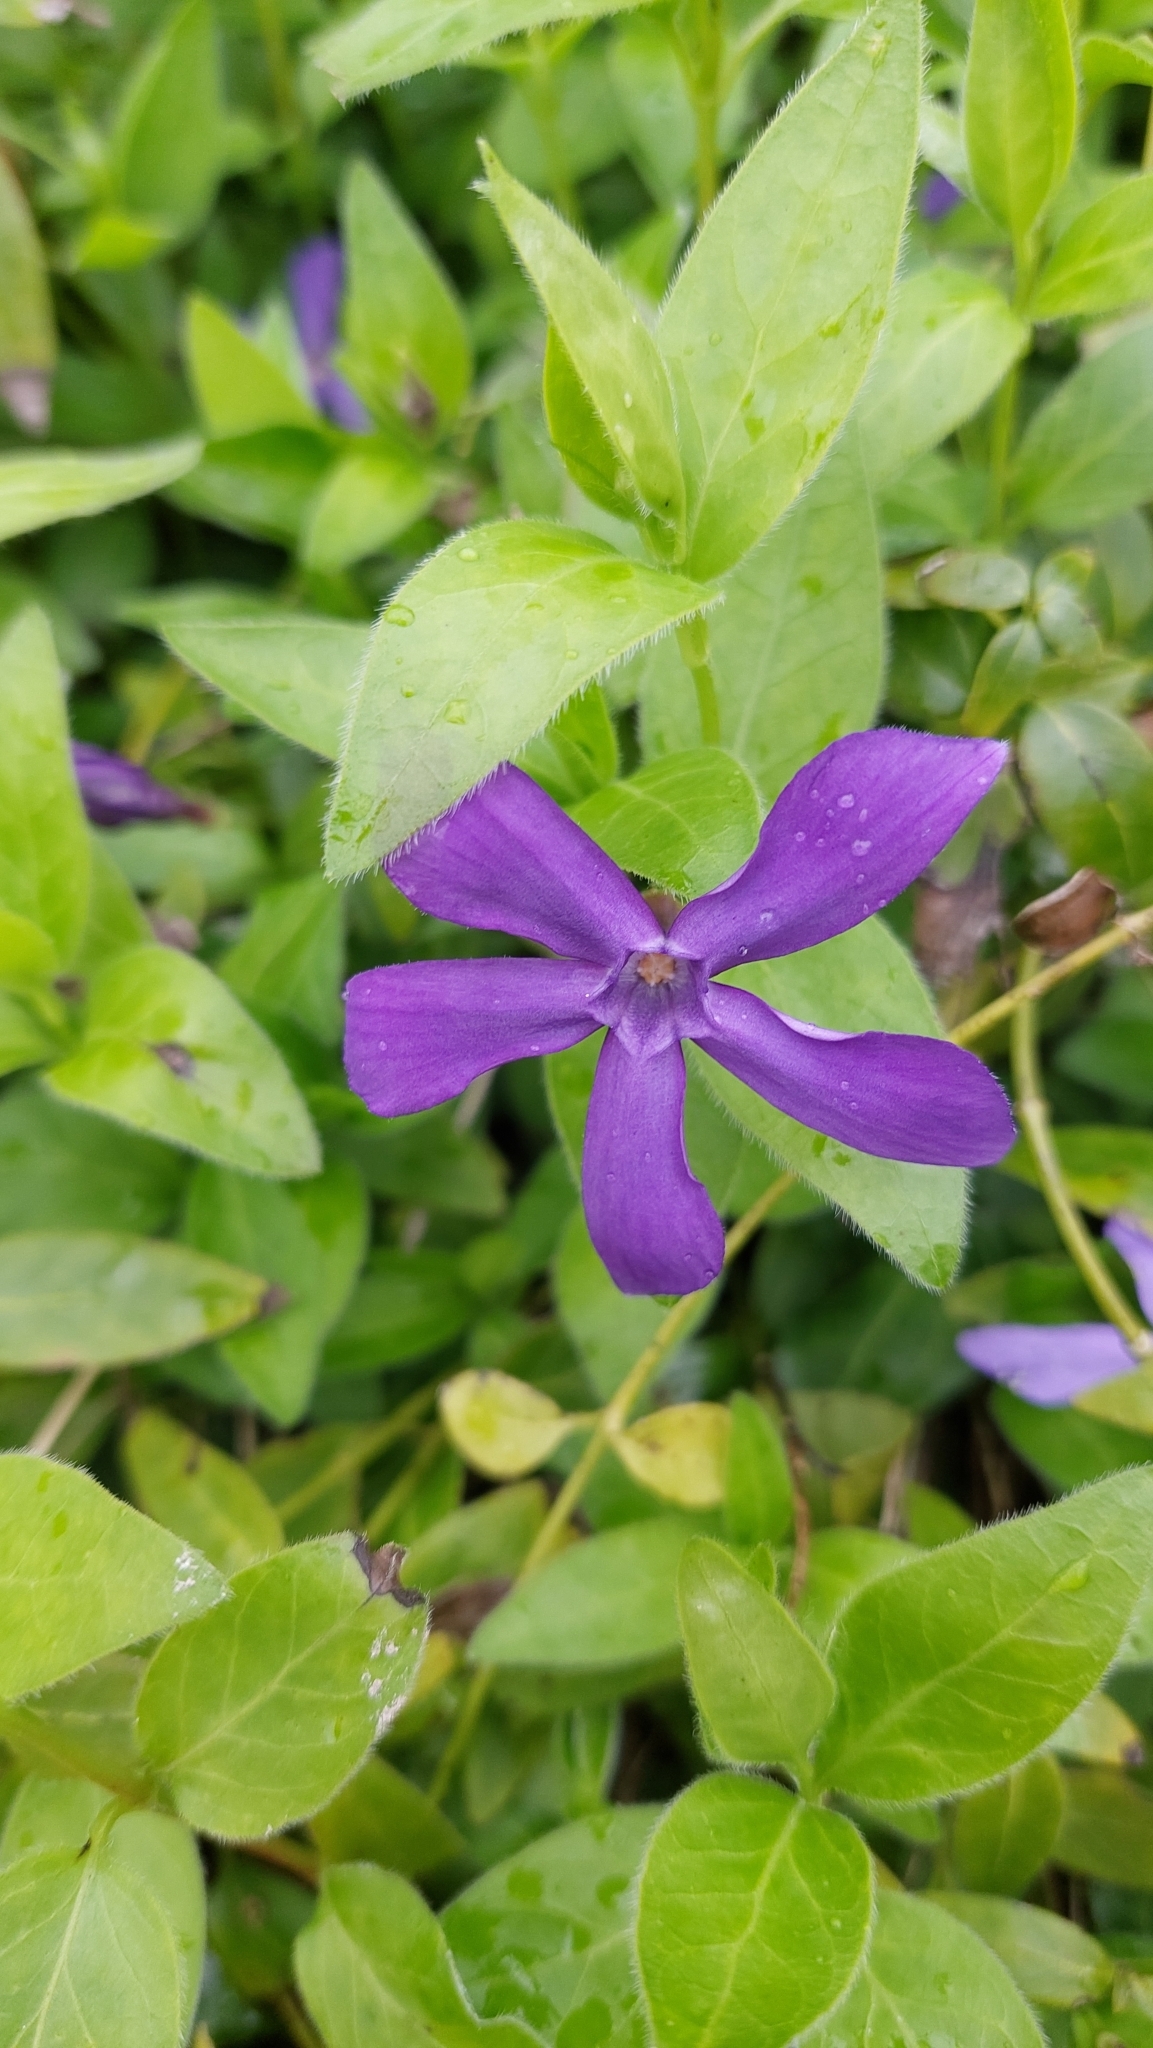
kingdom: Plantae
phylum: Tracheophyta
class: Magnoliopsida
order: Gentianales
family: Apocynaceae
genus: Vinca
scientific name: Vinca major
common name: Greater periwinkle
